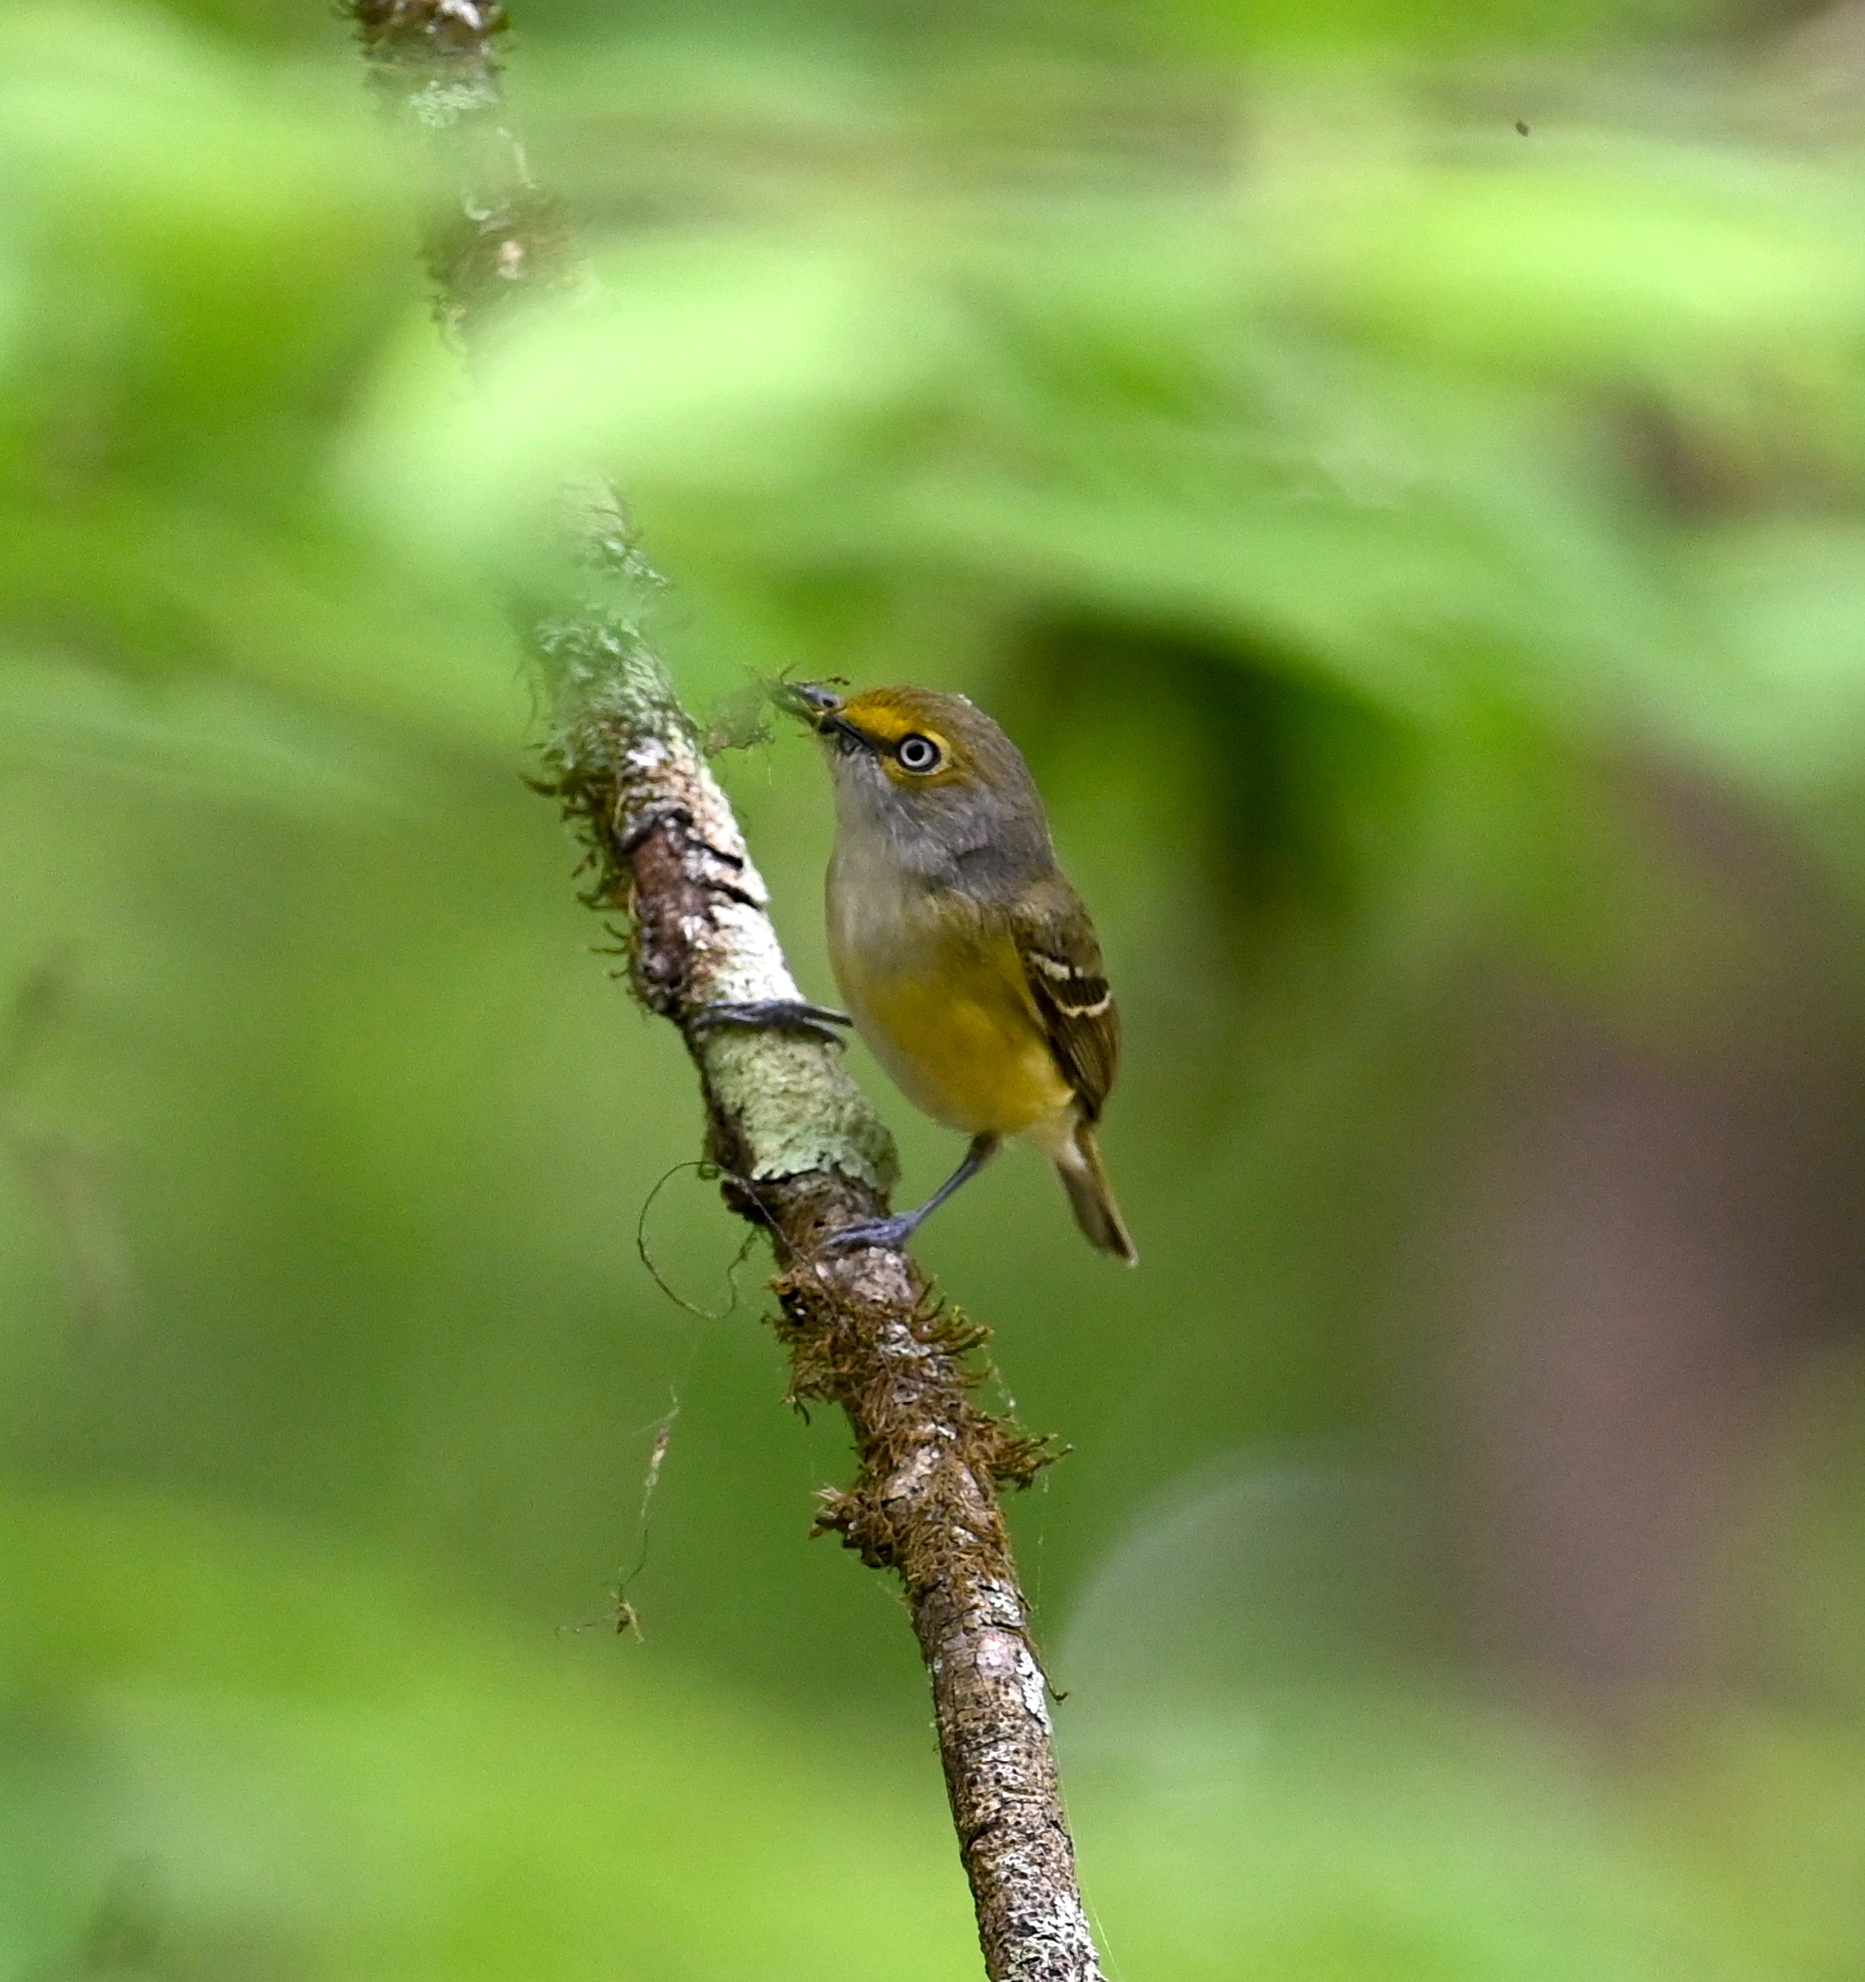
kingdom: Animalia
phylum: Chordata
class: Aves
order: Passeriformes
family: Vireonidae
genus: Vireo
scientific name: Vireo griseus
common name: White-eyed vireo
